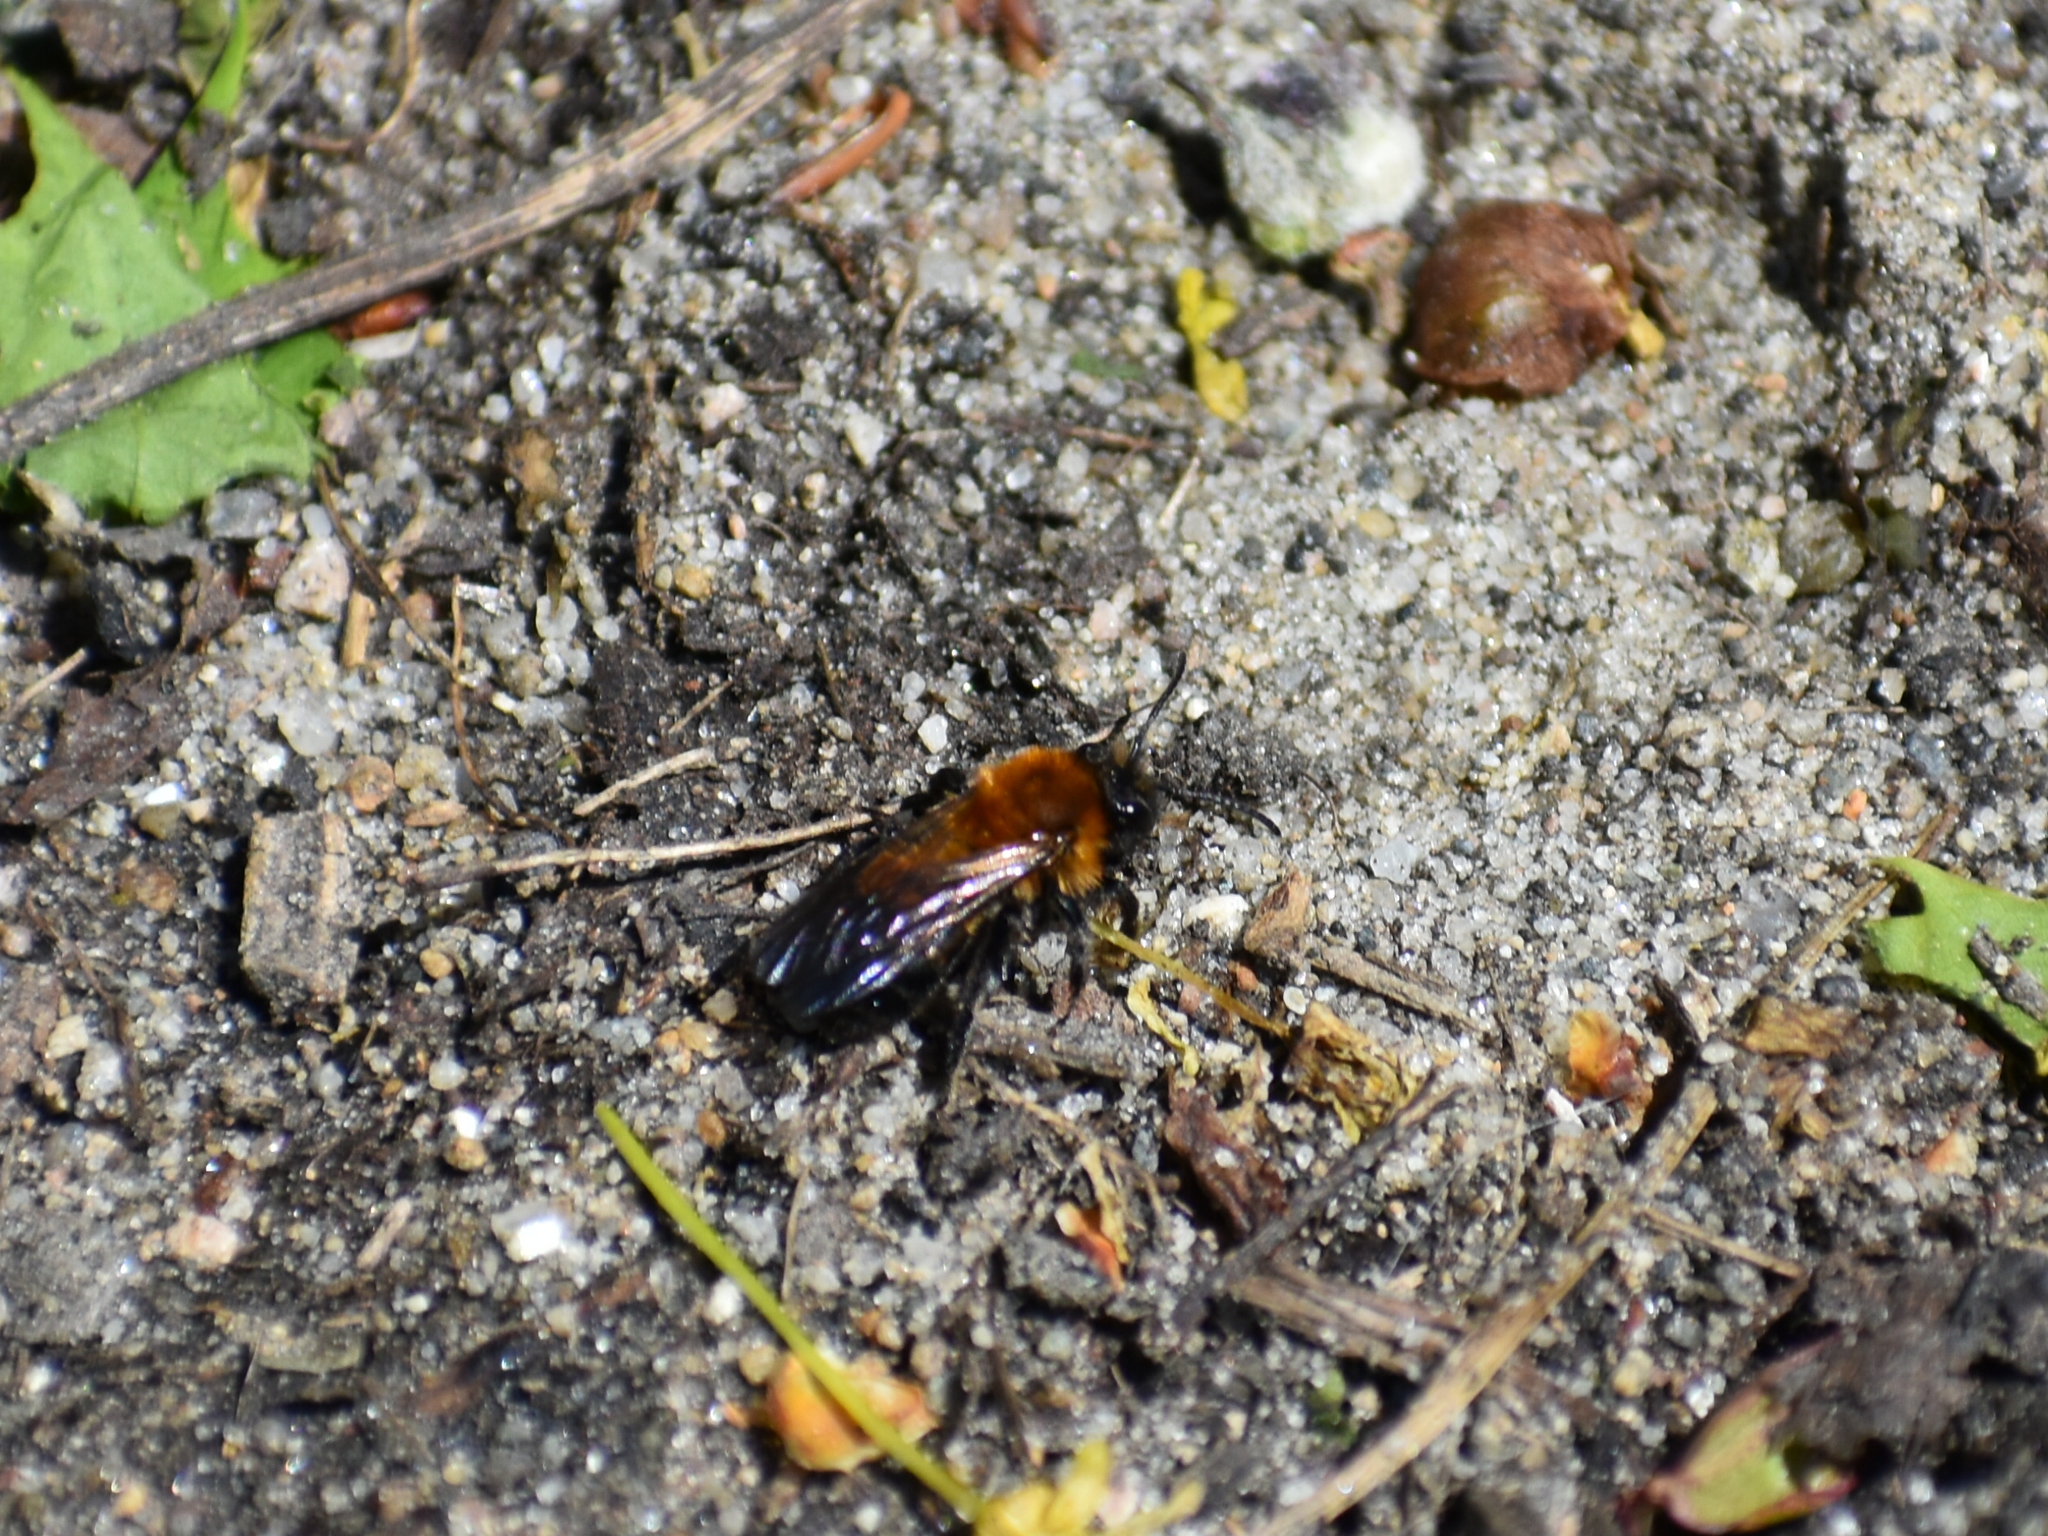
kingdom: Animalia
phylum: Arthropoda
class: Insecta
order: Hymenoptera
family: Andrenidae
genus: Andrena
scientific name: Andrena milwaukeensis
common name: Milwaukee mining bee
